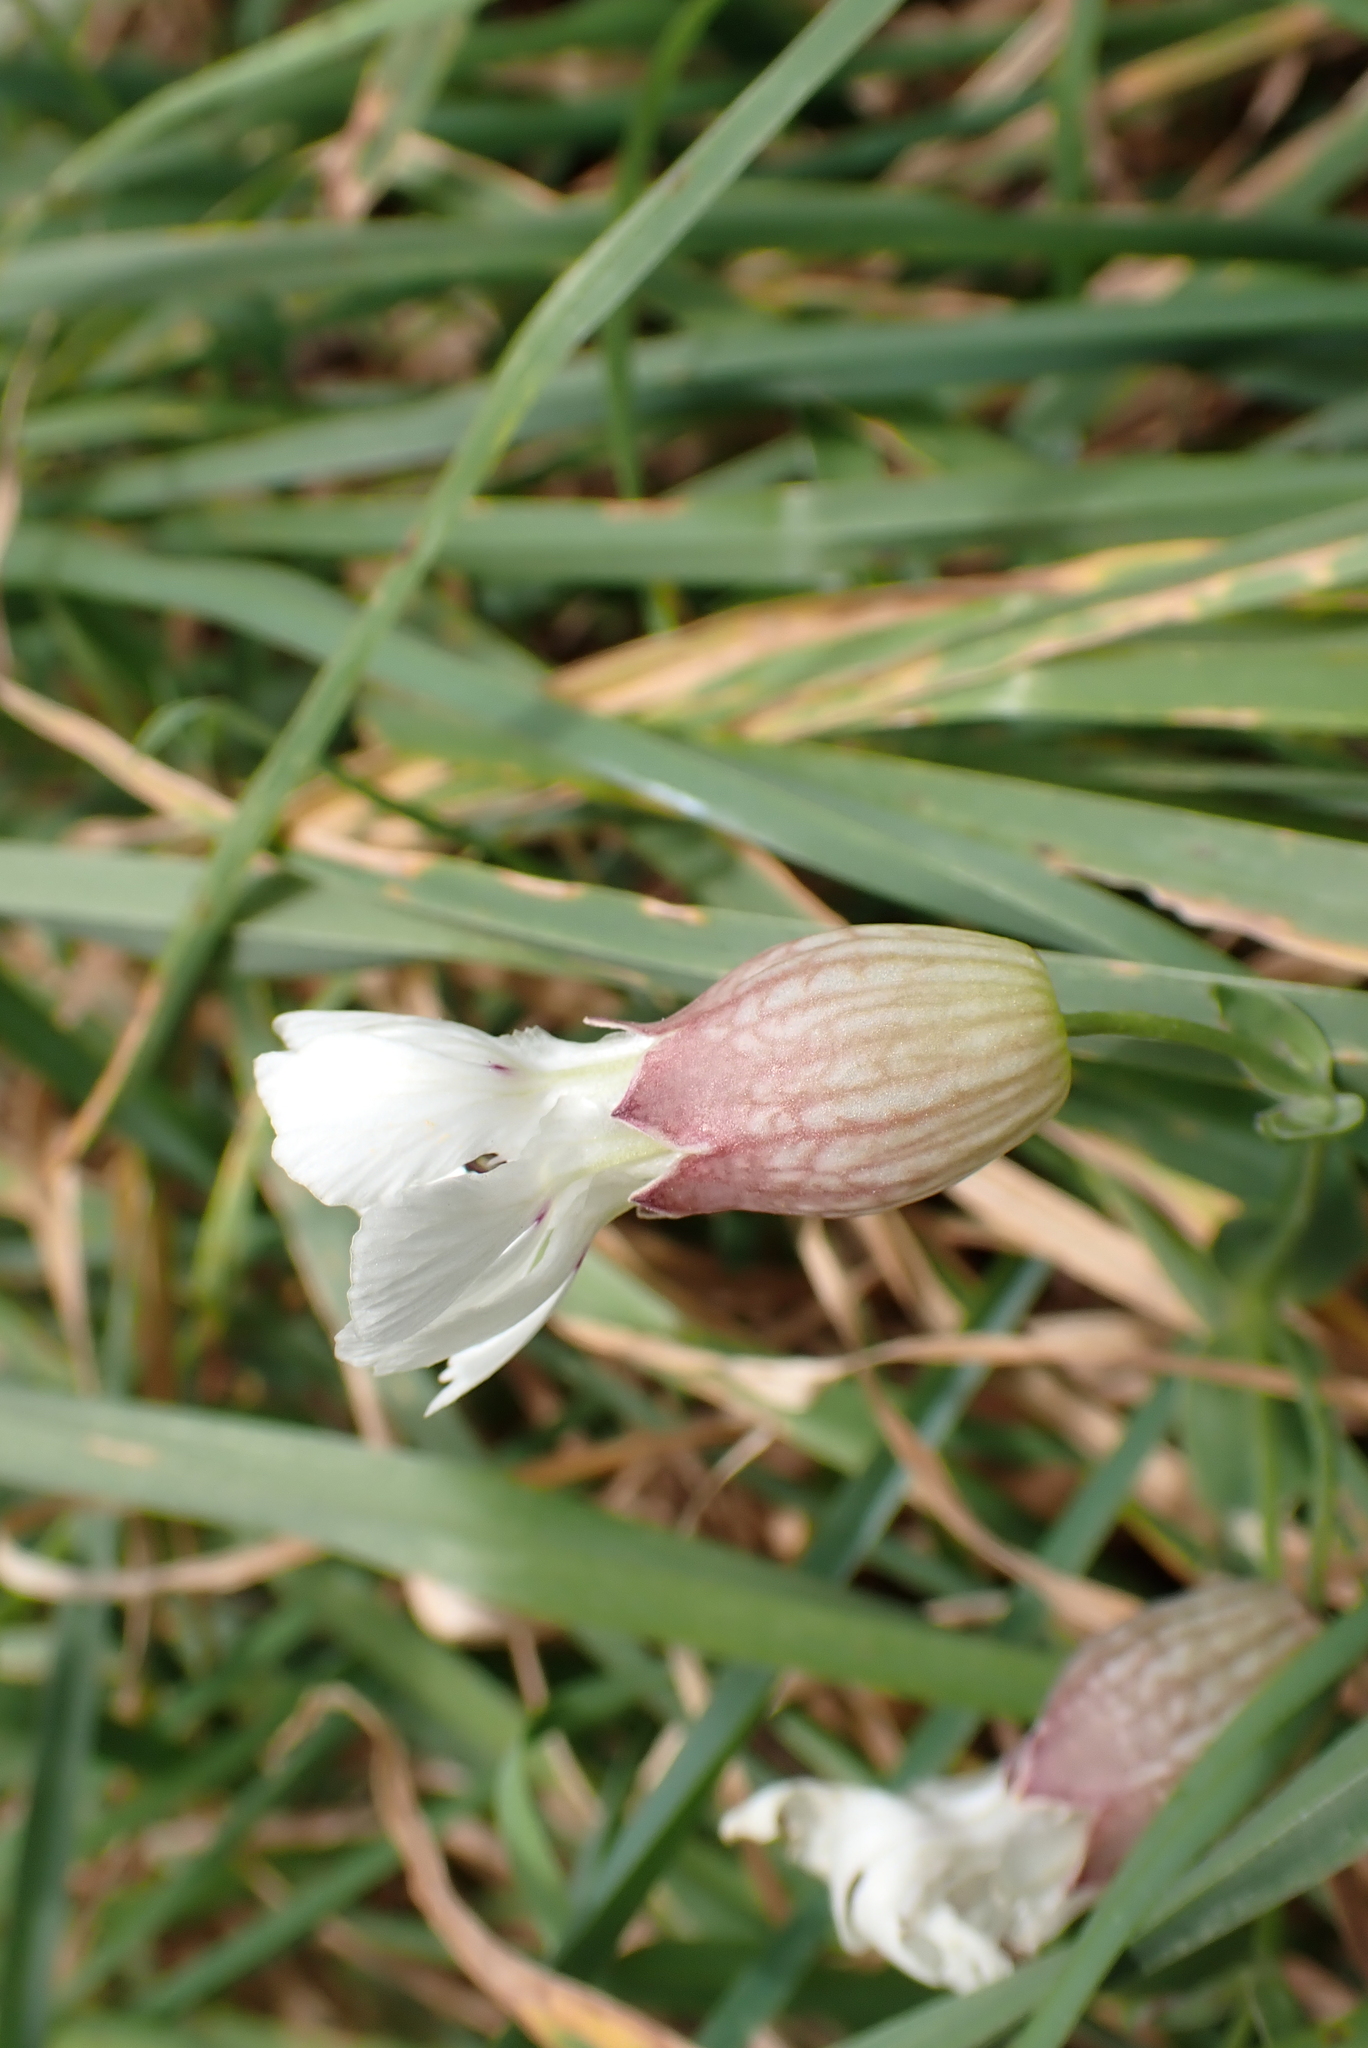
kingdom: Plantae
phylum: Tracheophyta
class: Magnoliopsida
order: Caryophyllales
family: Caryophyllaceae
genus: Silene
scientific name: Silene uniflora
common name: Sea campion
